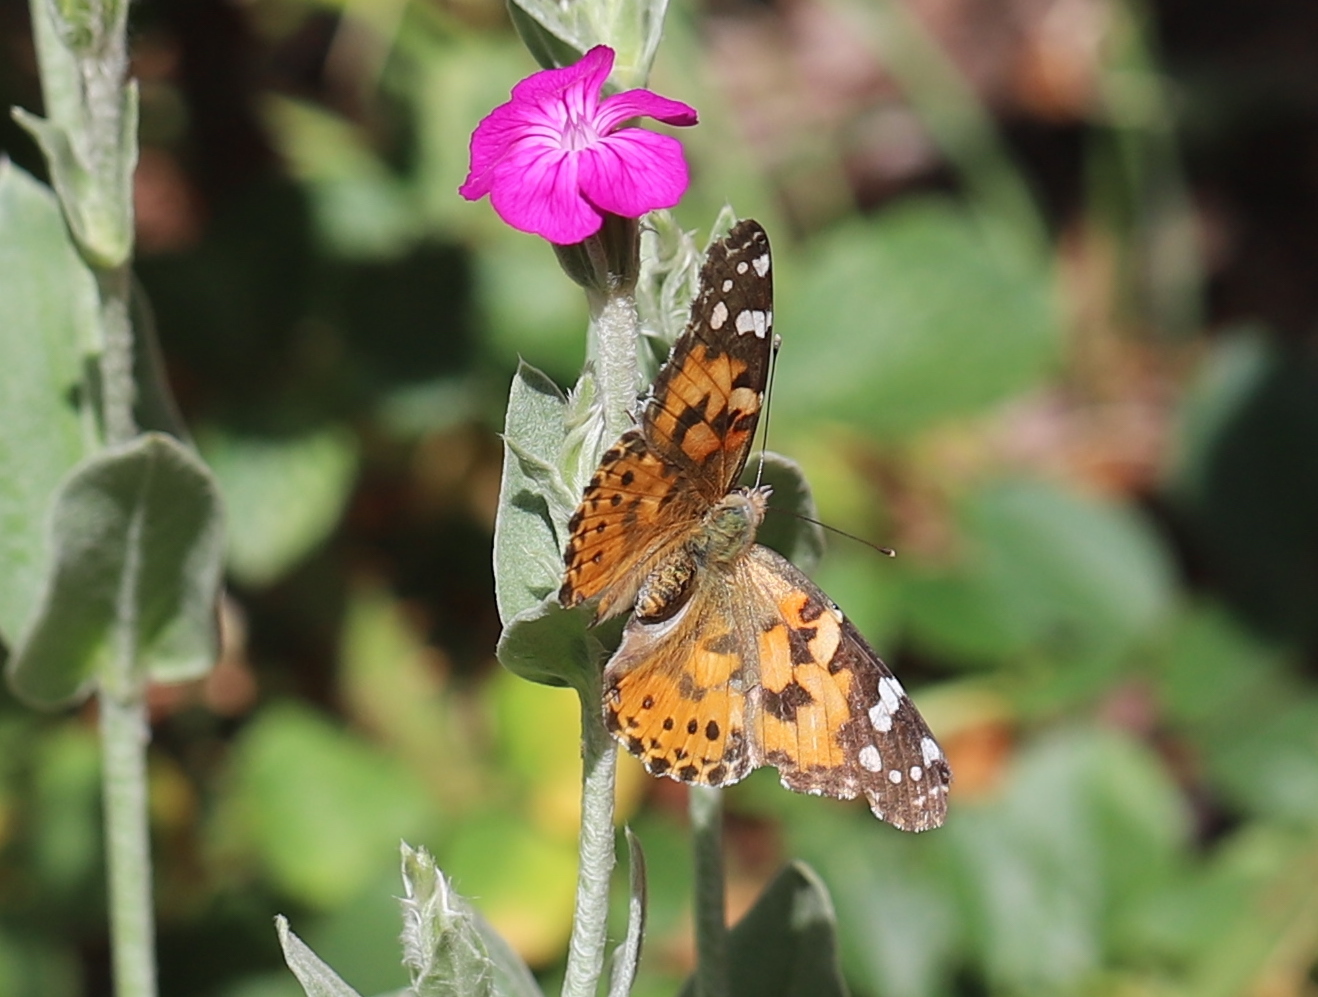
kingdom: Animalia
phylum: Arthropoda
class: Insecta
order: Lepidoptera
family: Nymphalidae
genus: Vanessa
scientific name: Vanessa cardui
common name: Painted lady
